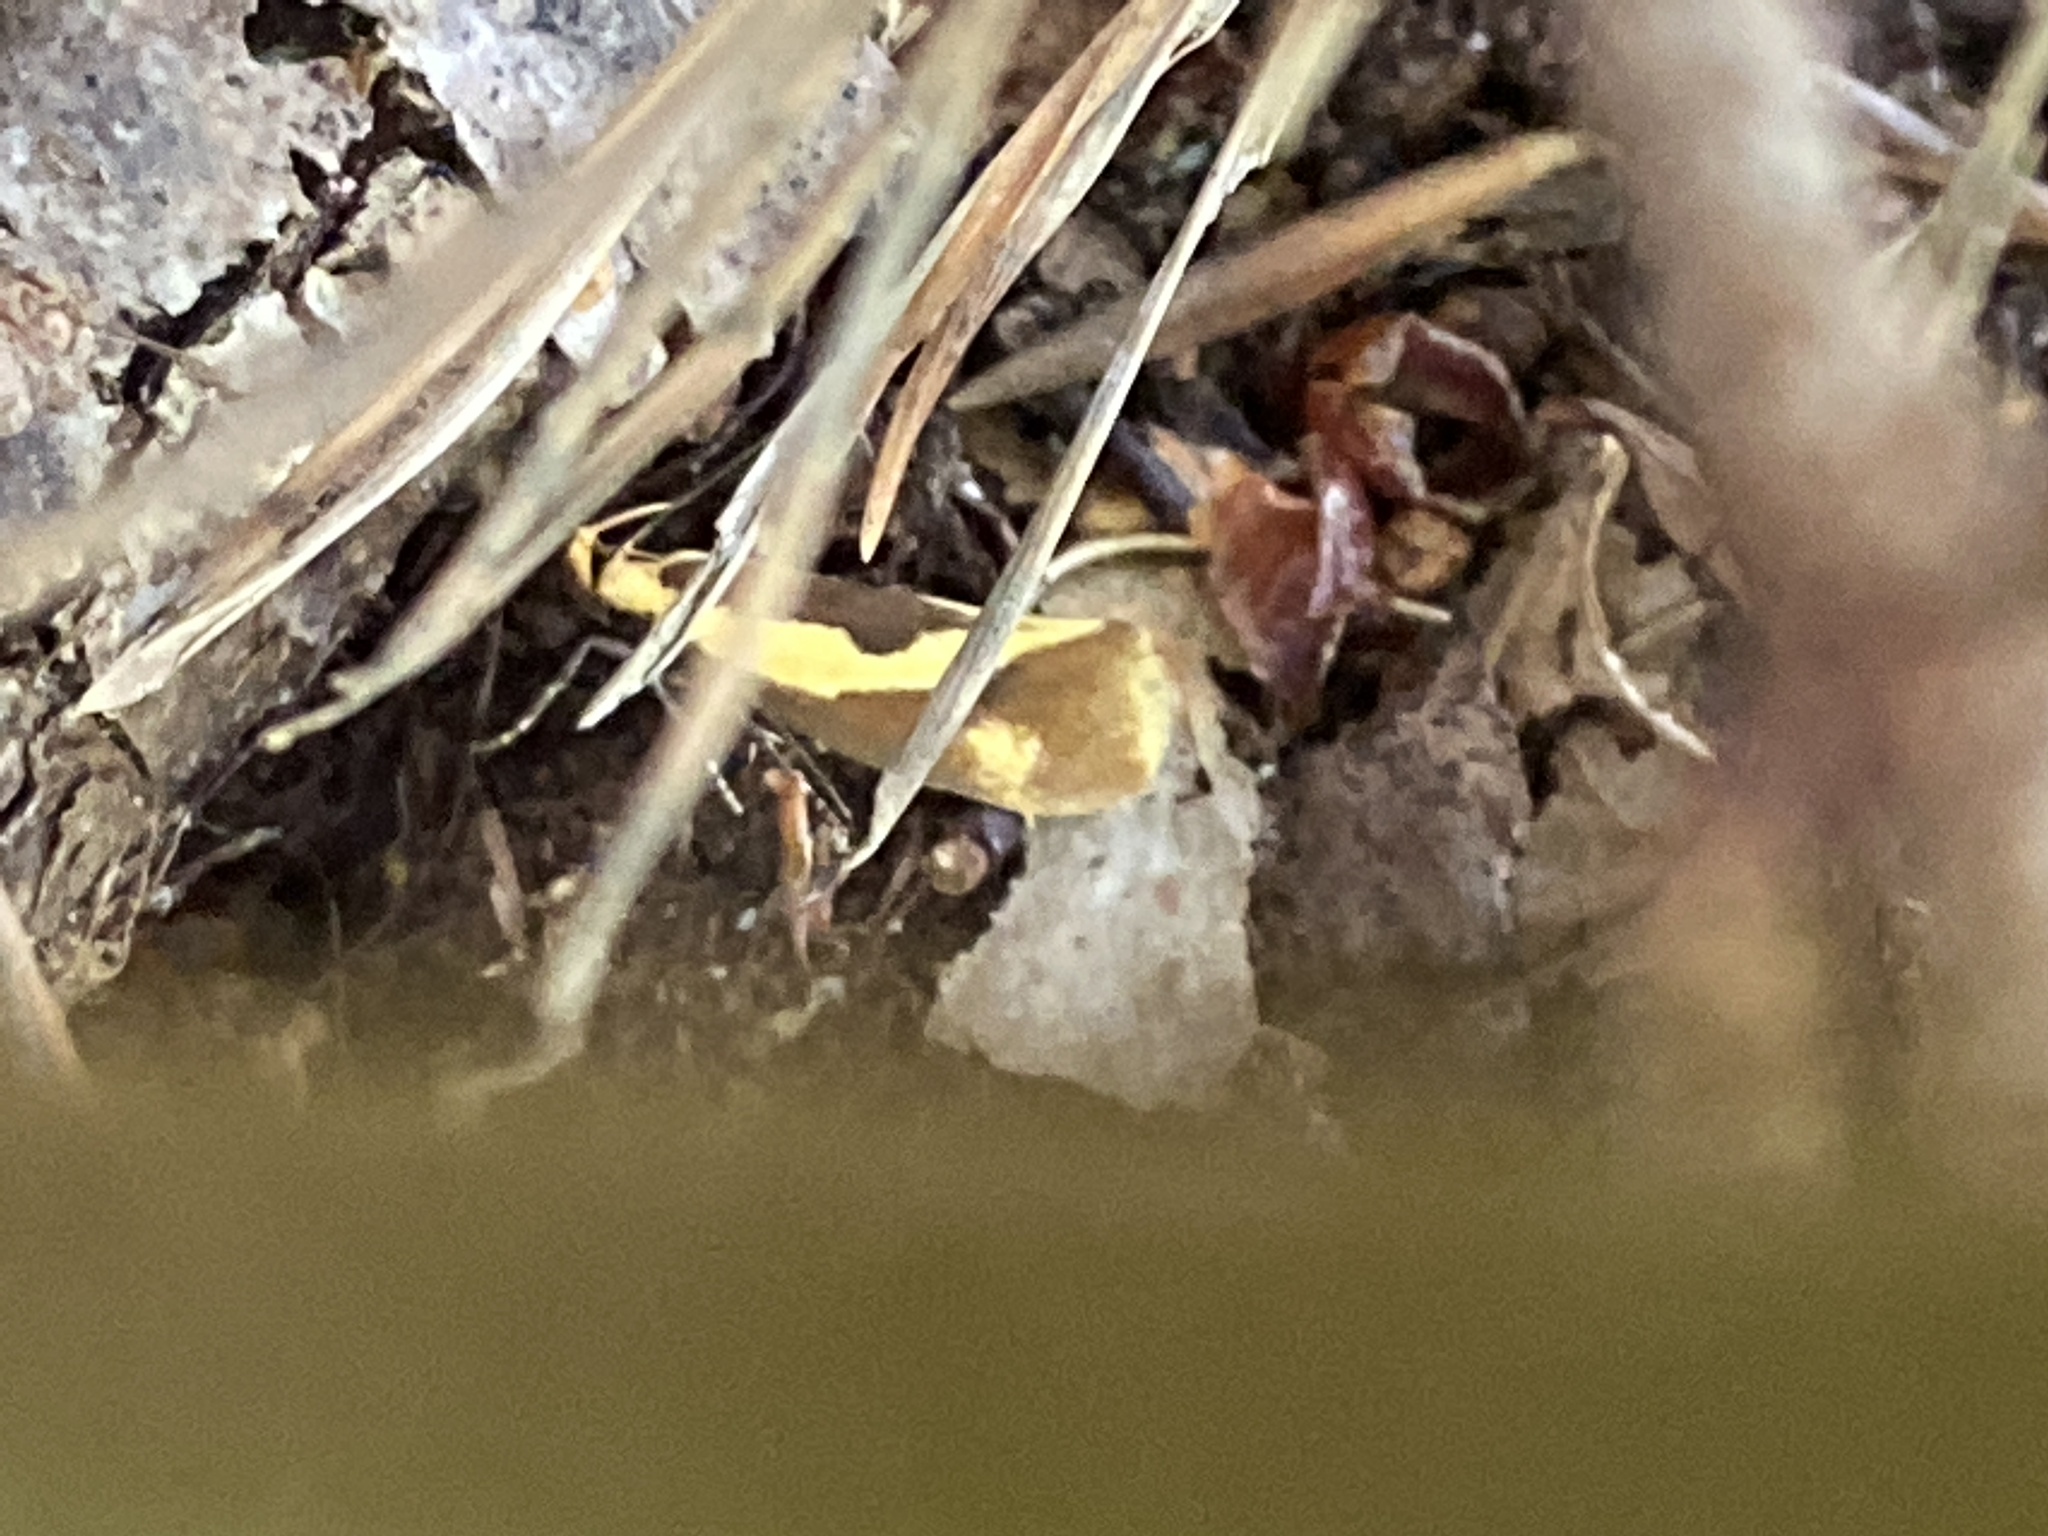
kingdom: Animalia
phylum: Arthropoda
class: Insecta
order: Lepidoptera
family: Oecophoridae
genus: Harpella
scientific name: Harpella forficella
